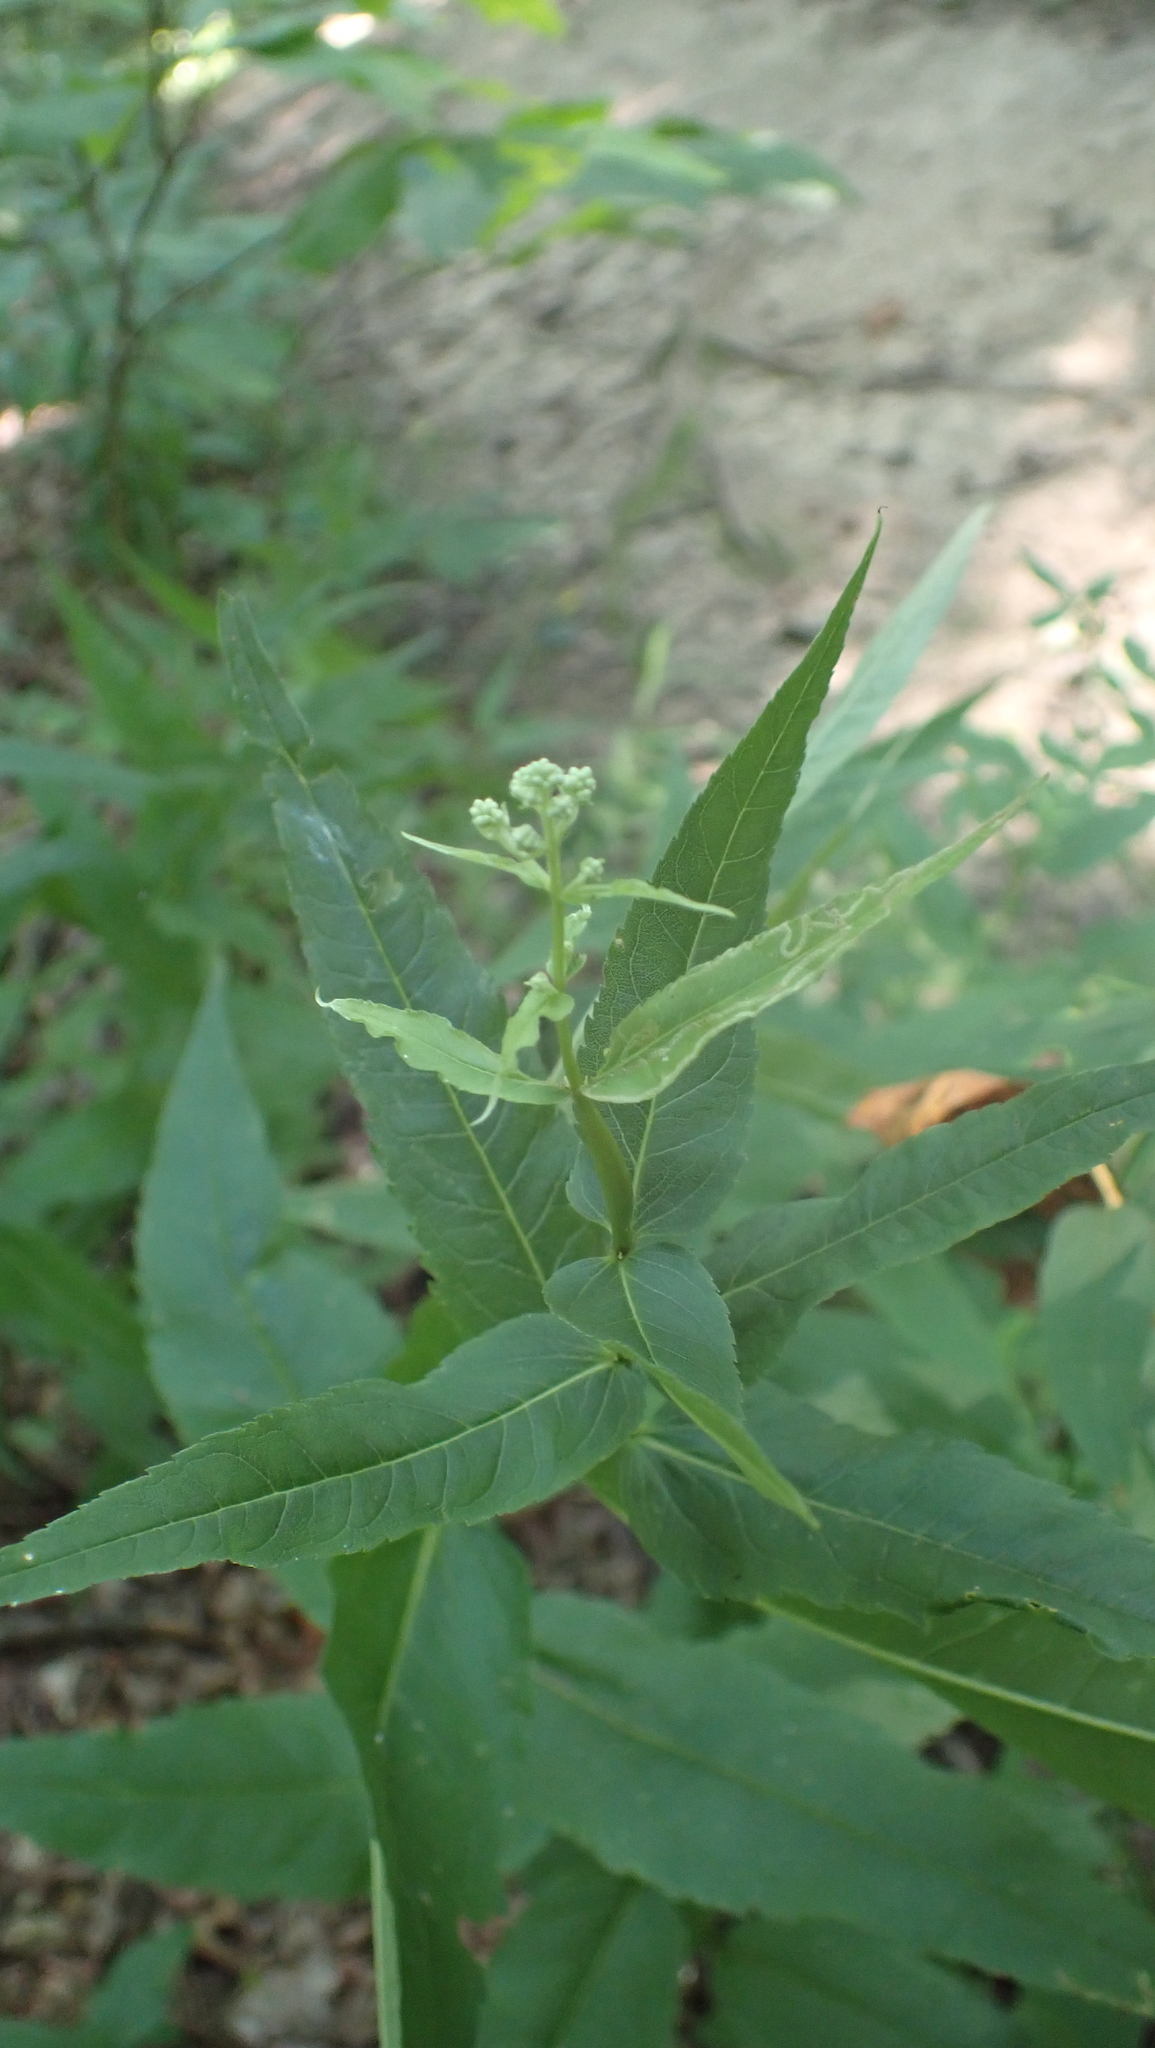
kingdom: Plantae
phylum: Tracheophyta
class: Magnoliopsida
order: Asterales
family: Asteraceae
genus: Eupatorium
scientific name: Eupatorium sessilifolium
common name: Upland boneset
